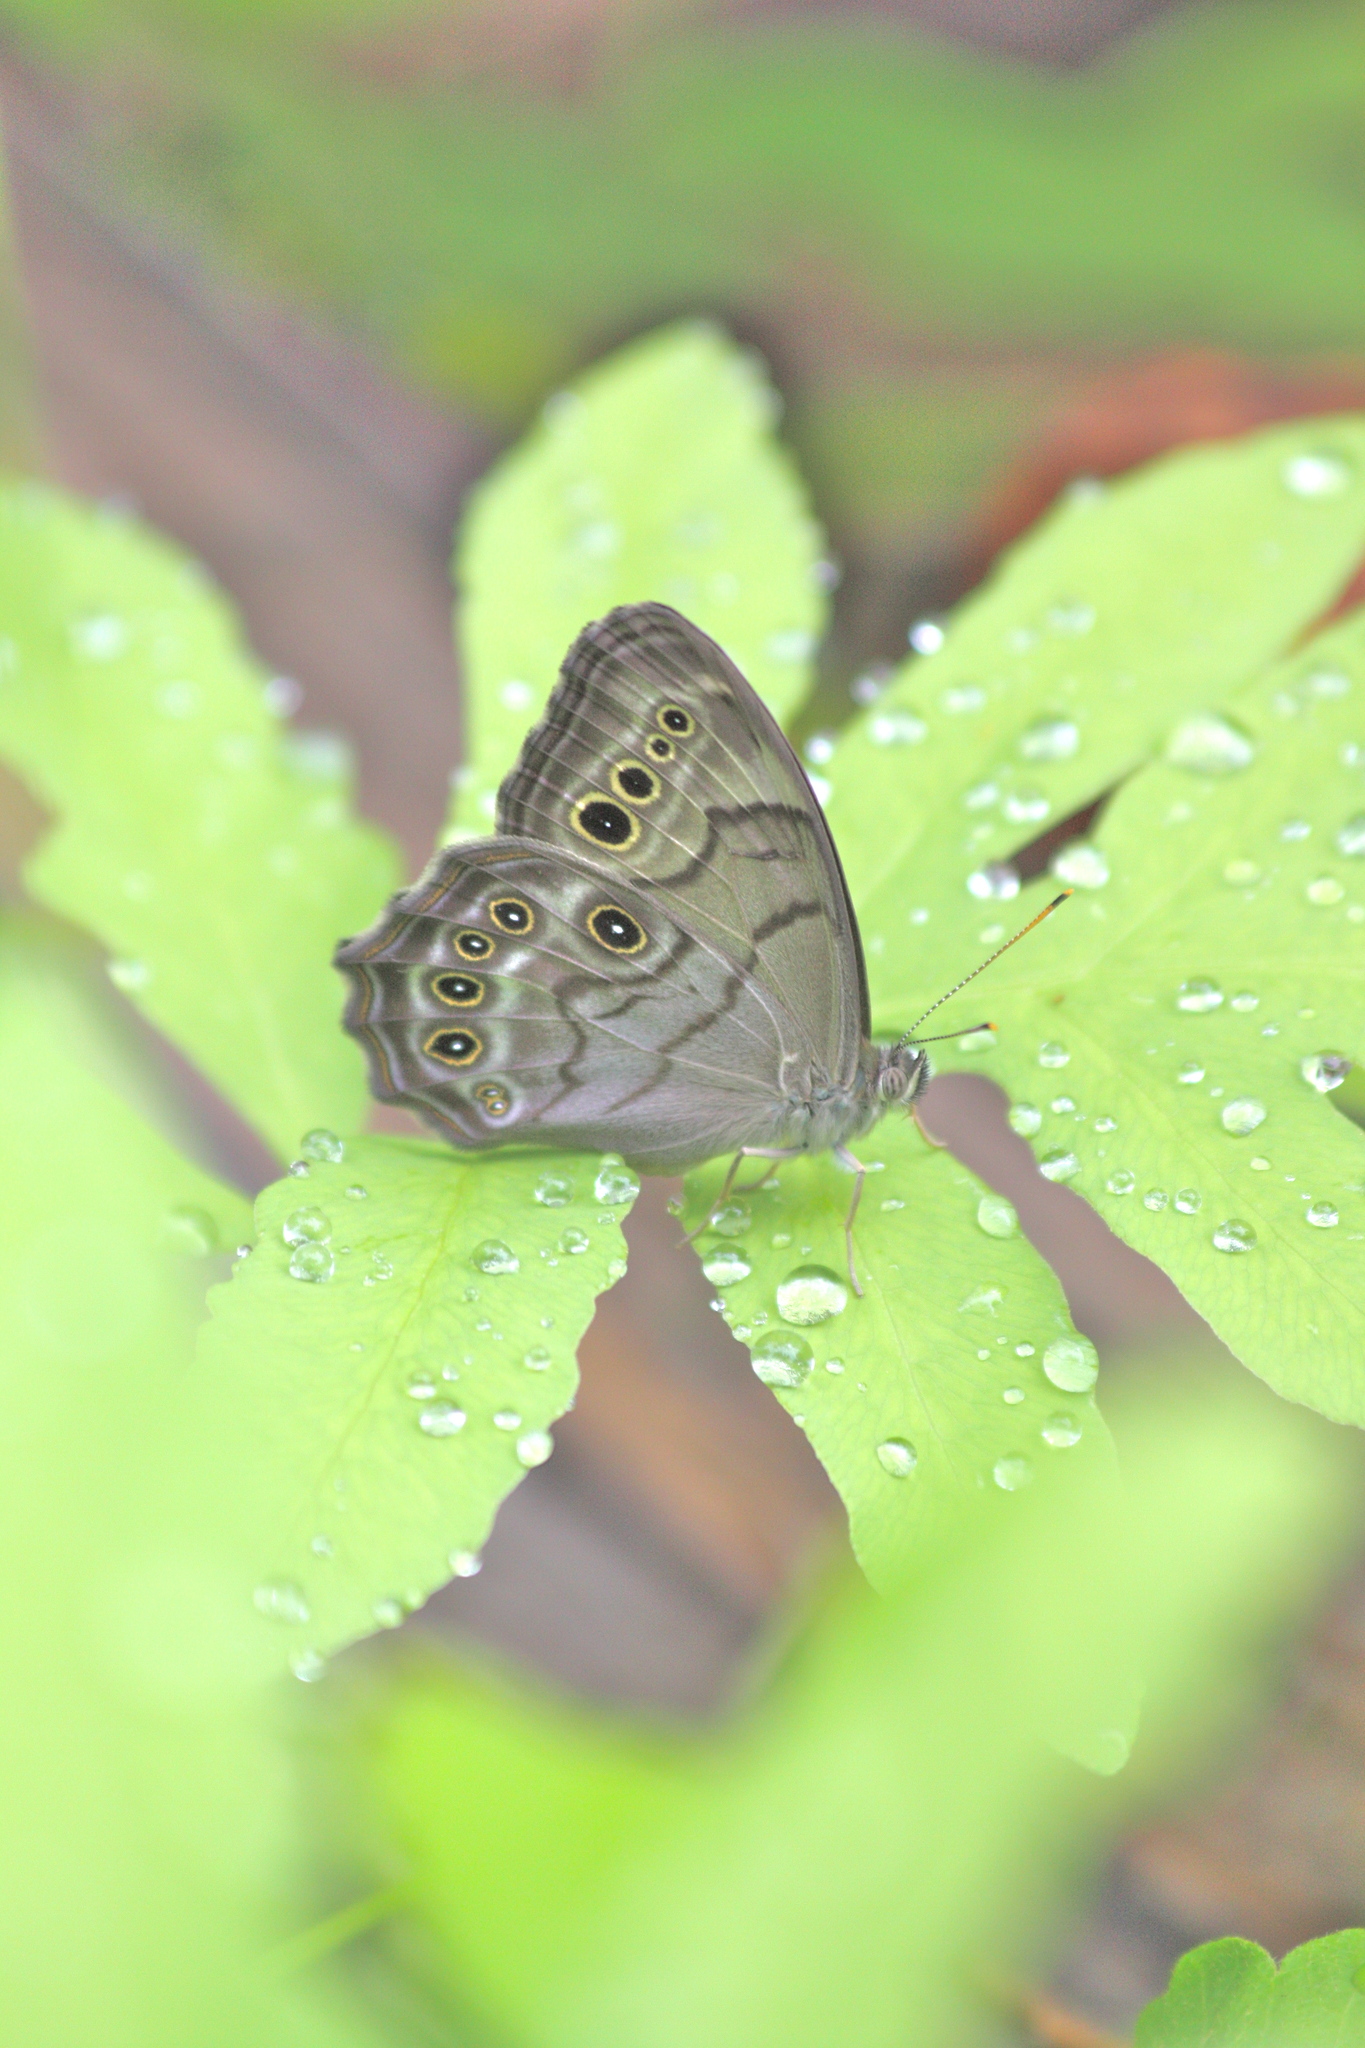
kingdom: Animalia
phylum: Arthropoda
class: Insecta
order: Lepidoptera
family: Nymphalidae
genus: Lethe
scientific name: Lethe anthedon
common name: Northern pearly-eye
